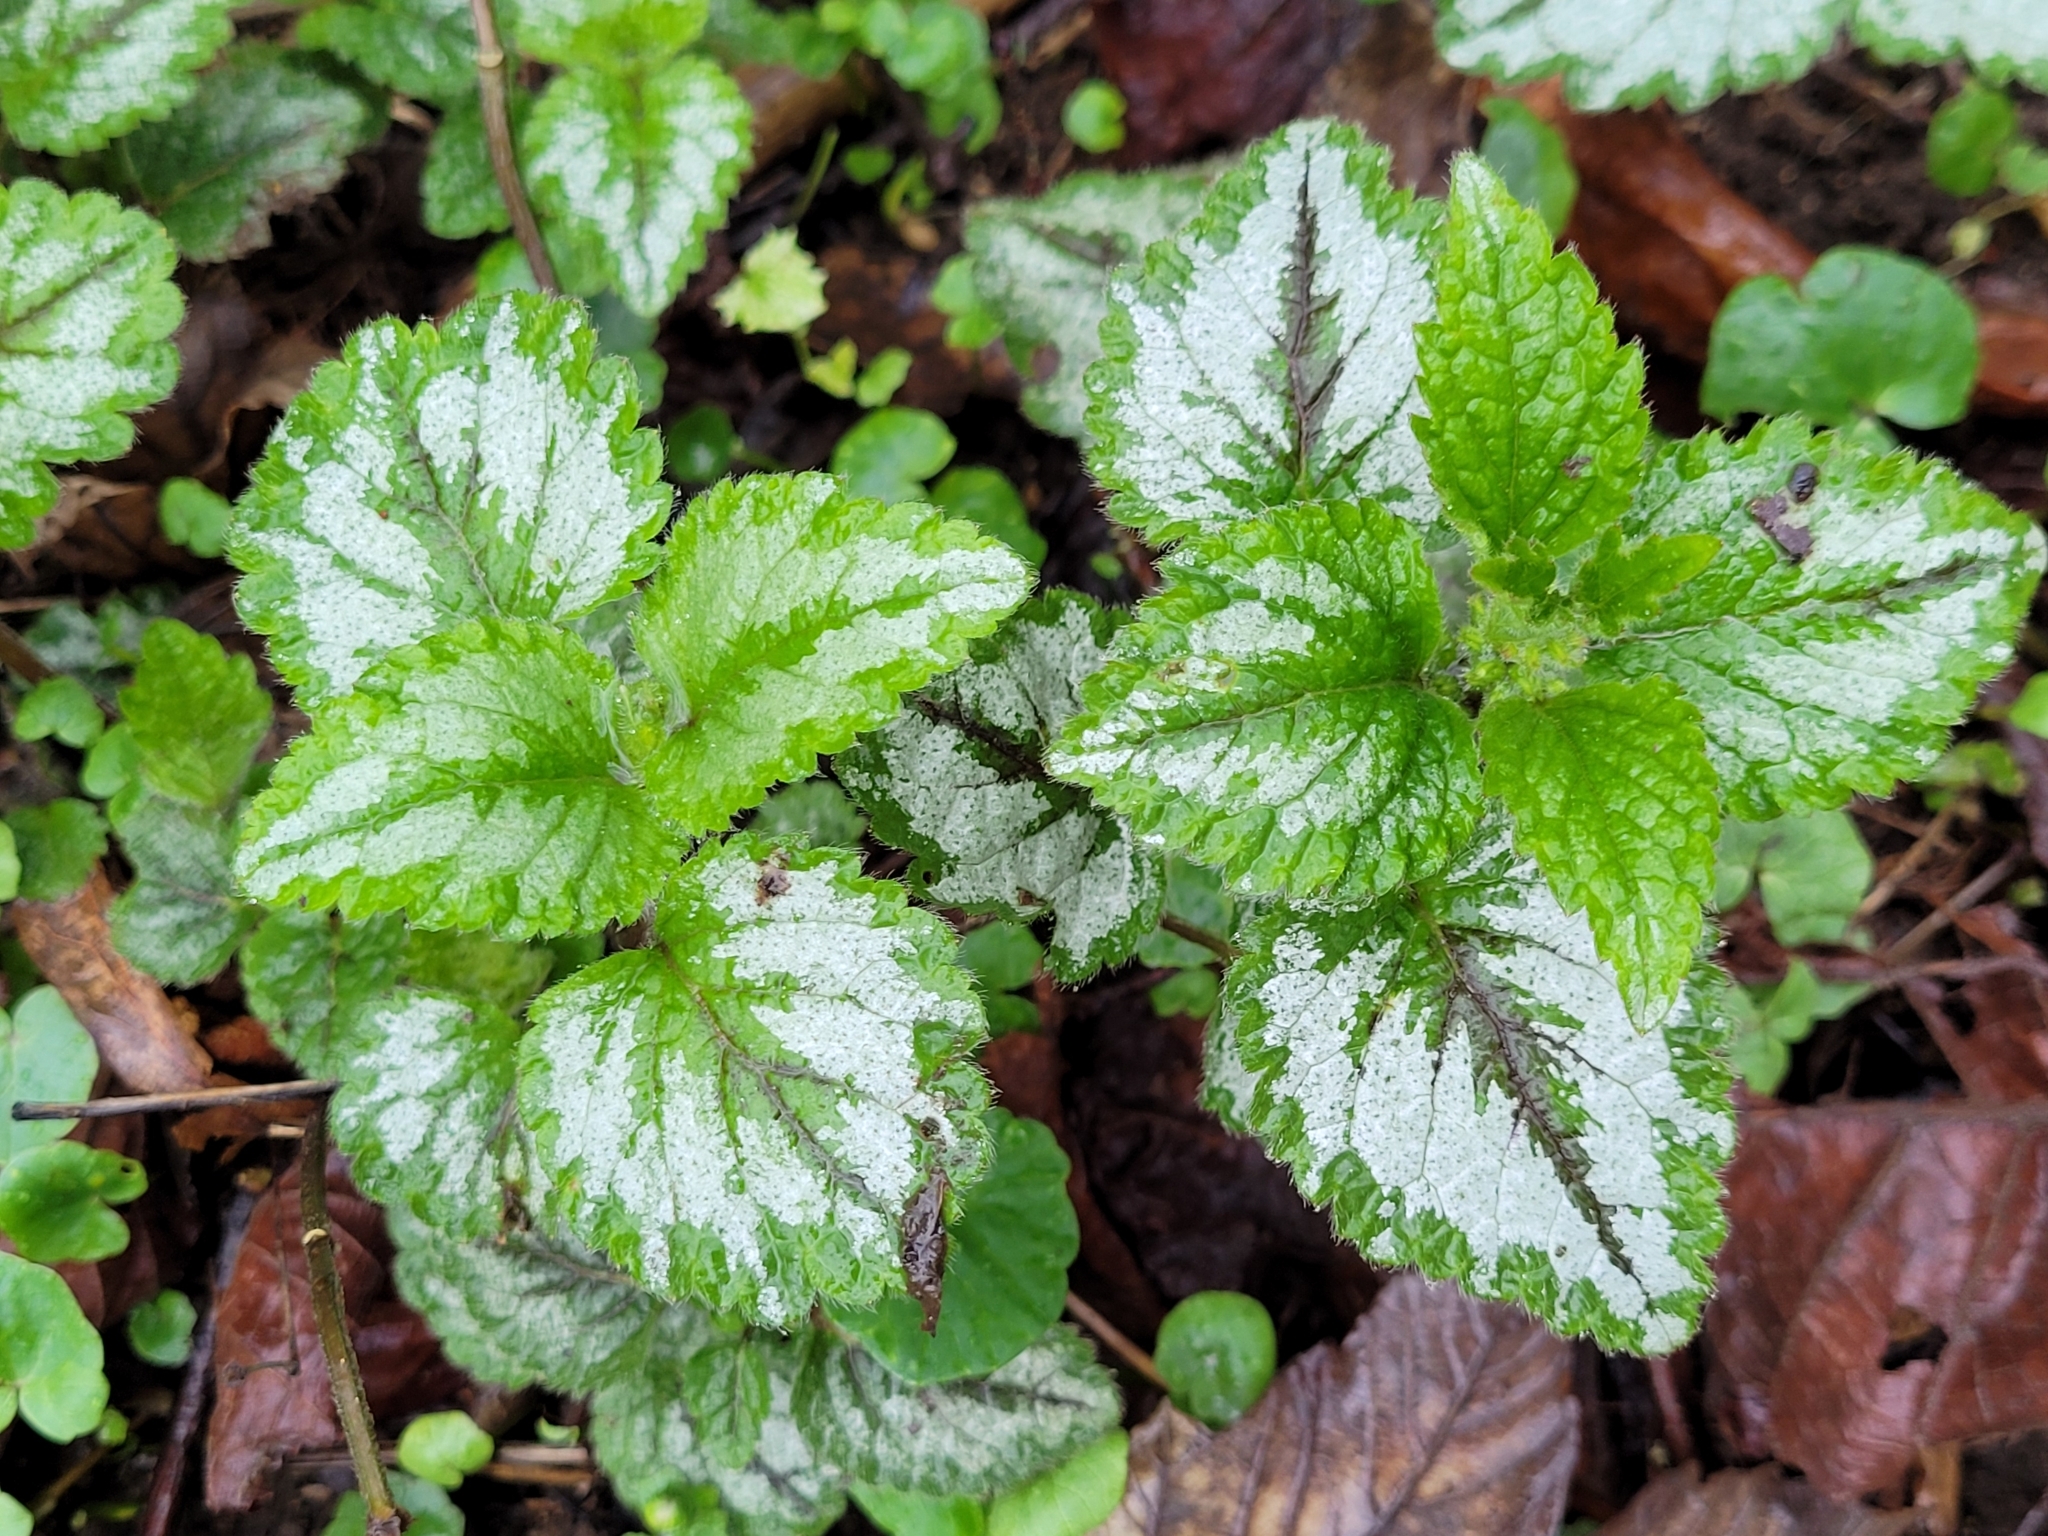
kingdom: Plantae
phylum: Tracheophyta
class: Magnoliopsida
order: Lamiales
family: Lamiaceae
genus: Lamium
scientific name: Lamium galeobdolon
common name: Yellow archangel
